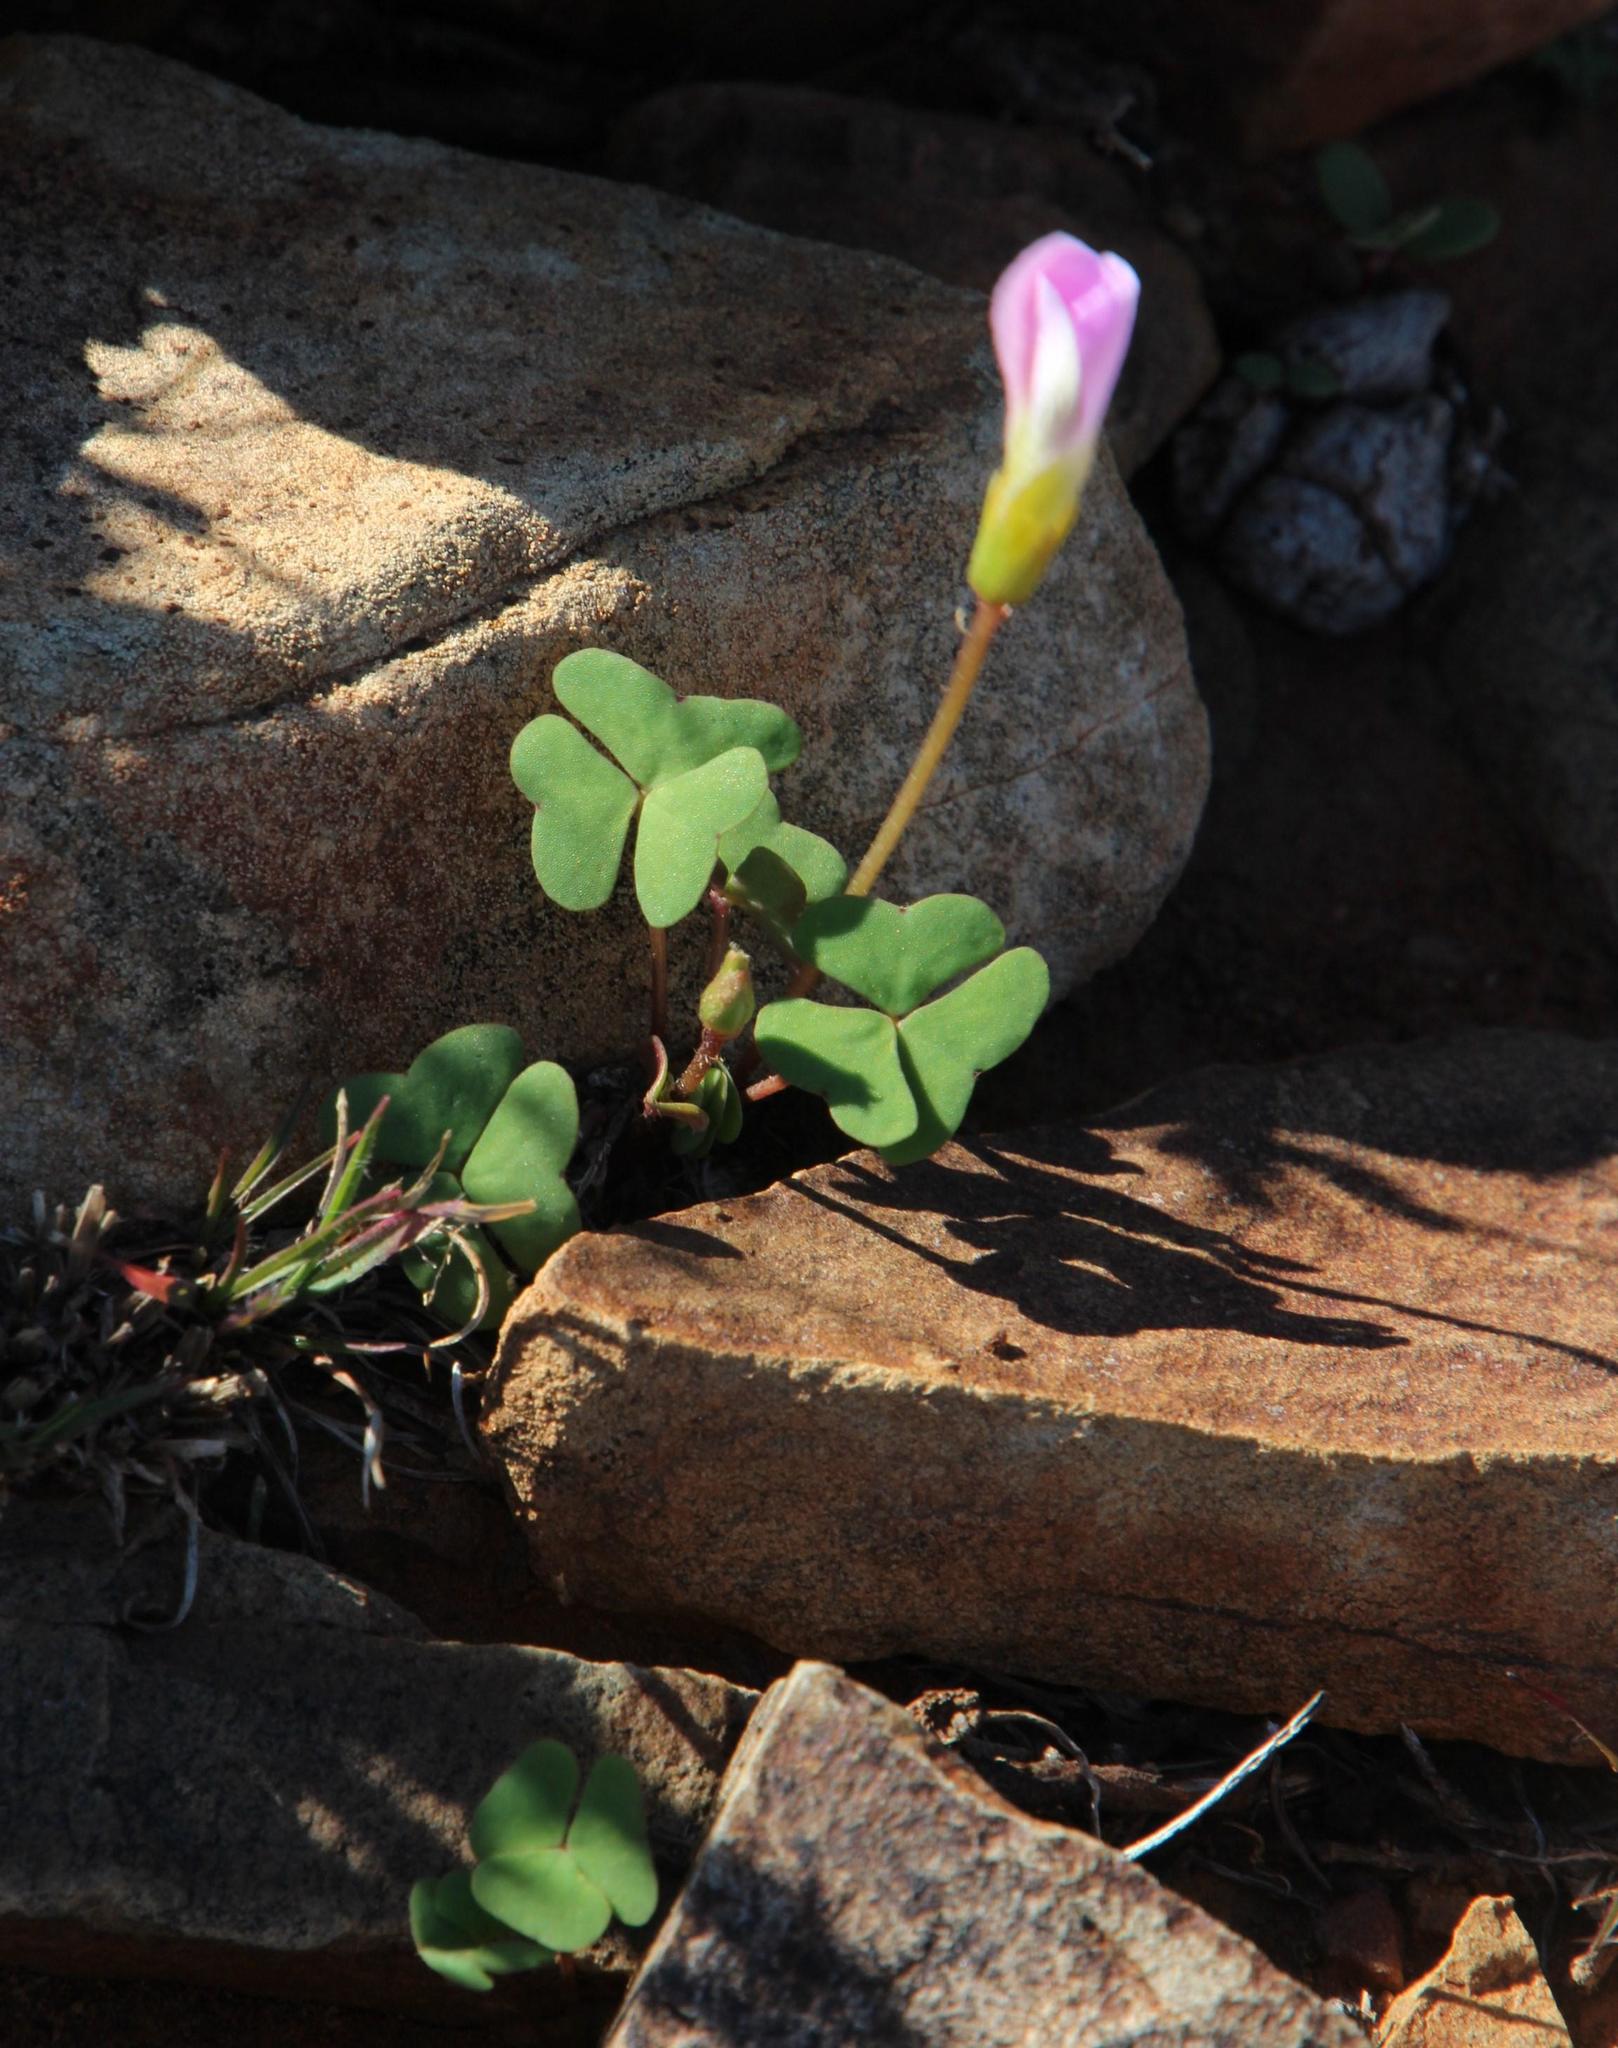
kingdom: Plantae
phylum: Tracheophyta
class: Magnoliopsida
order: Oxalidales
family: Oxalidaceae
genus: Oxalis
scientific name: Oxalis obliquifolia
